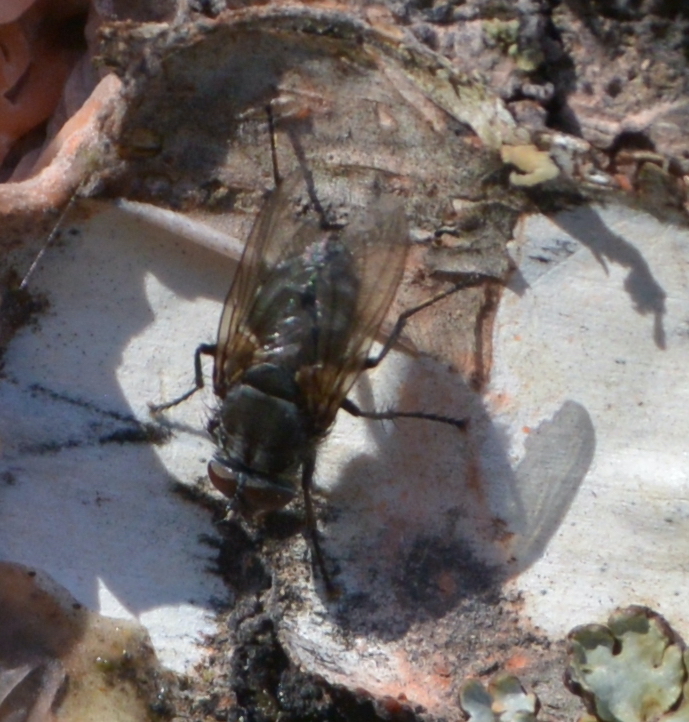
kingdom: Animalia
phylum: Arthropoda
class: Insecta
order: Diptera
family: Polleniidae
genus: Pollenia
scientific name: Pollenia vagabunda
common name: Vagabund cluster fly
